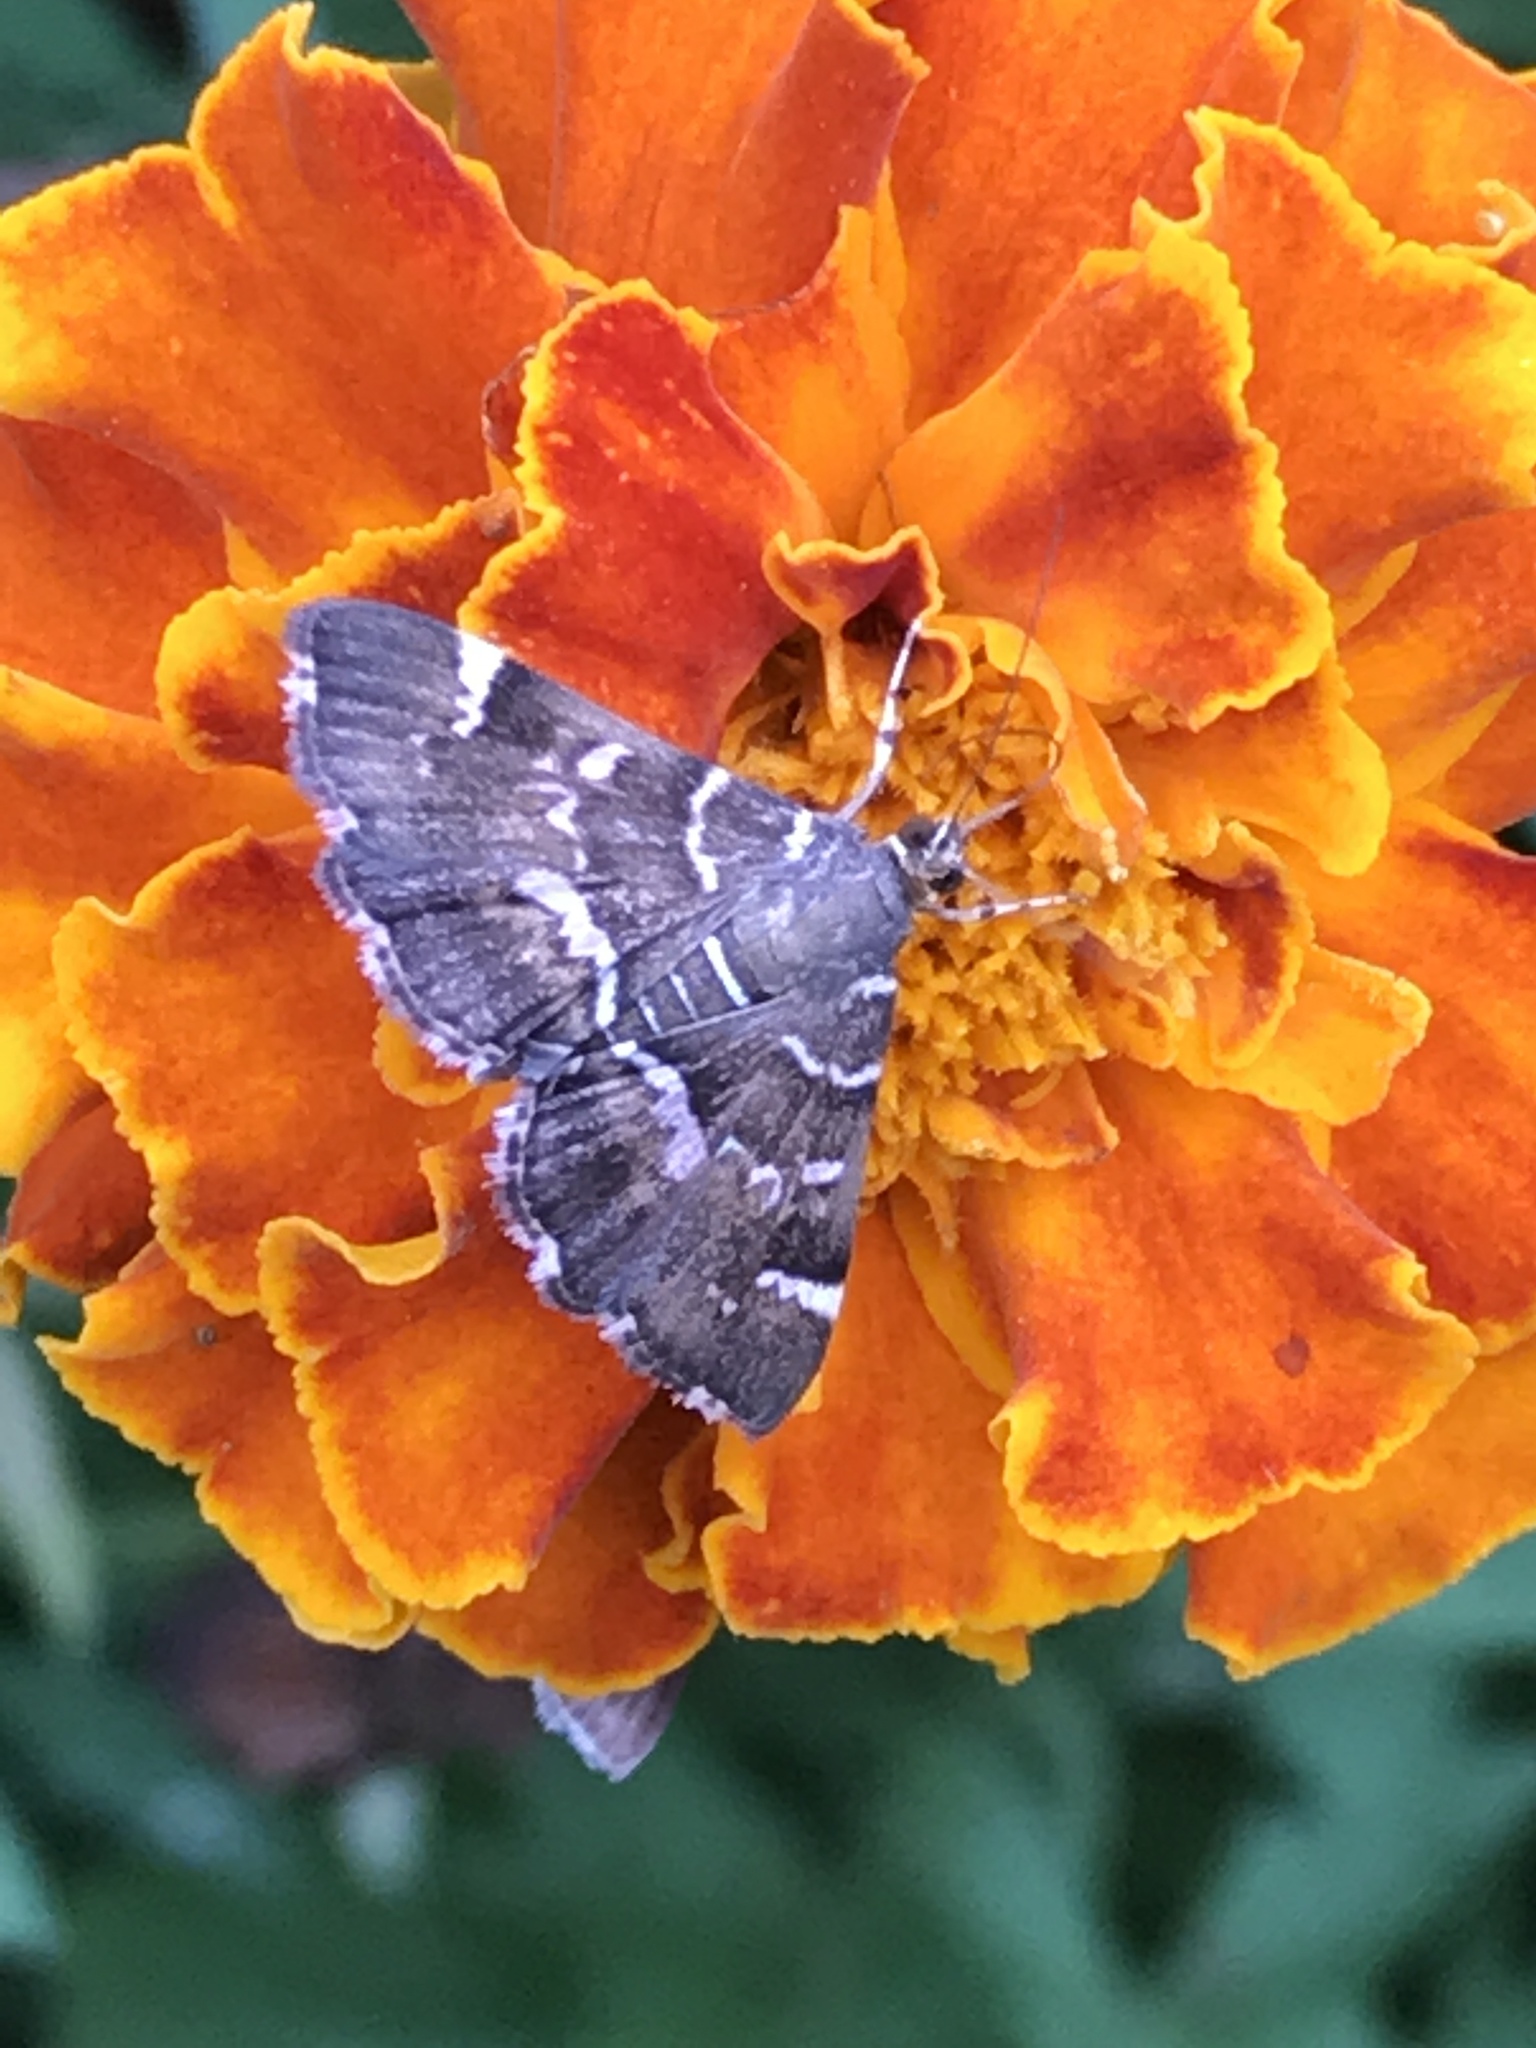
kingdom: Animalia
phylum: Arthropoda
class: Insecta
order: Lepidoptera
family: Crambidae
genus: Hymenia
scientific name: Hymenia perspectalis
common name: Spotted beet webworm
